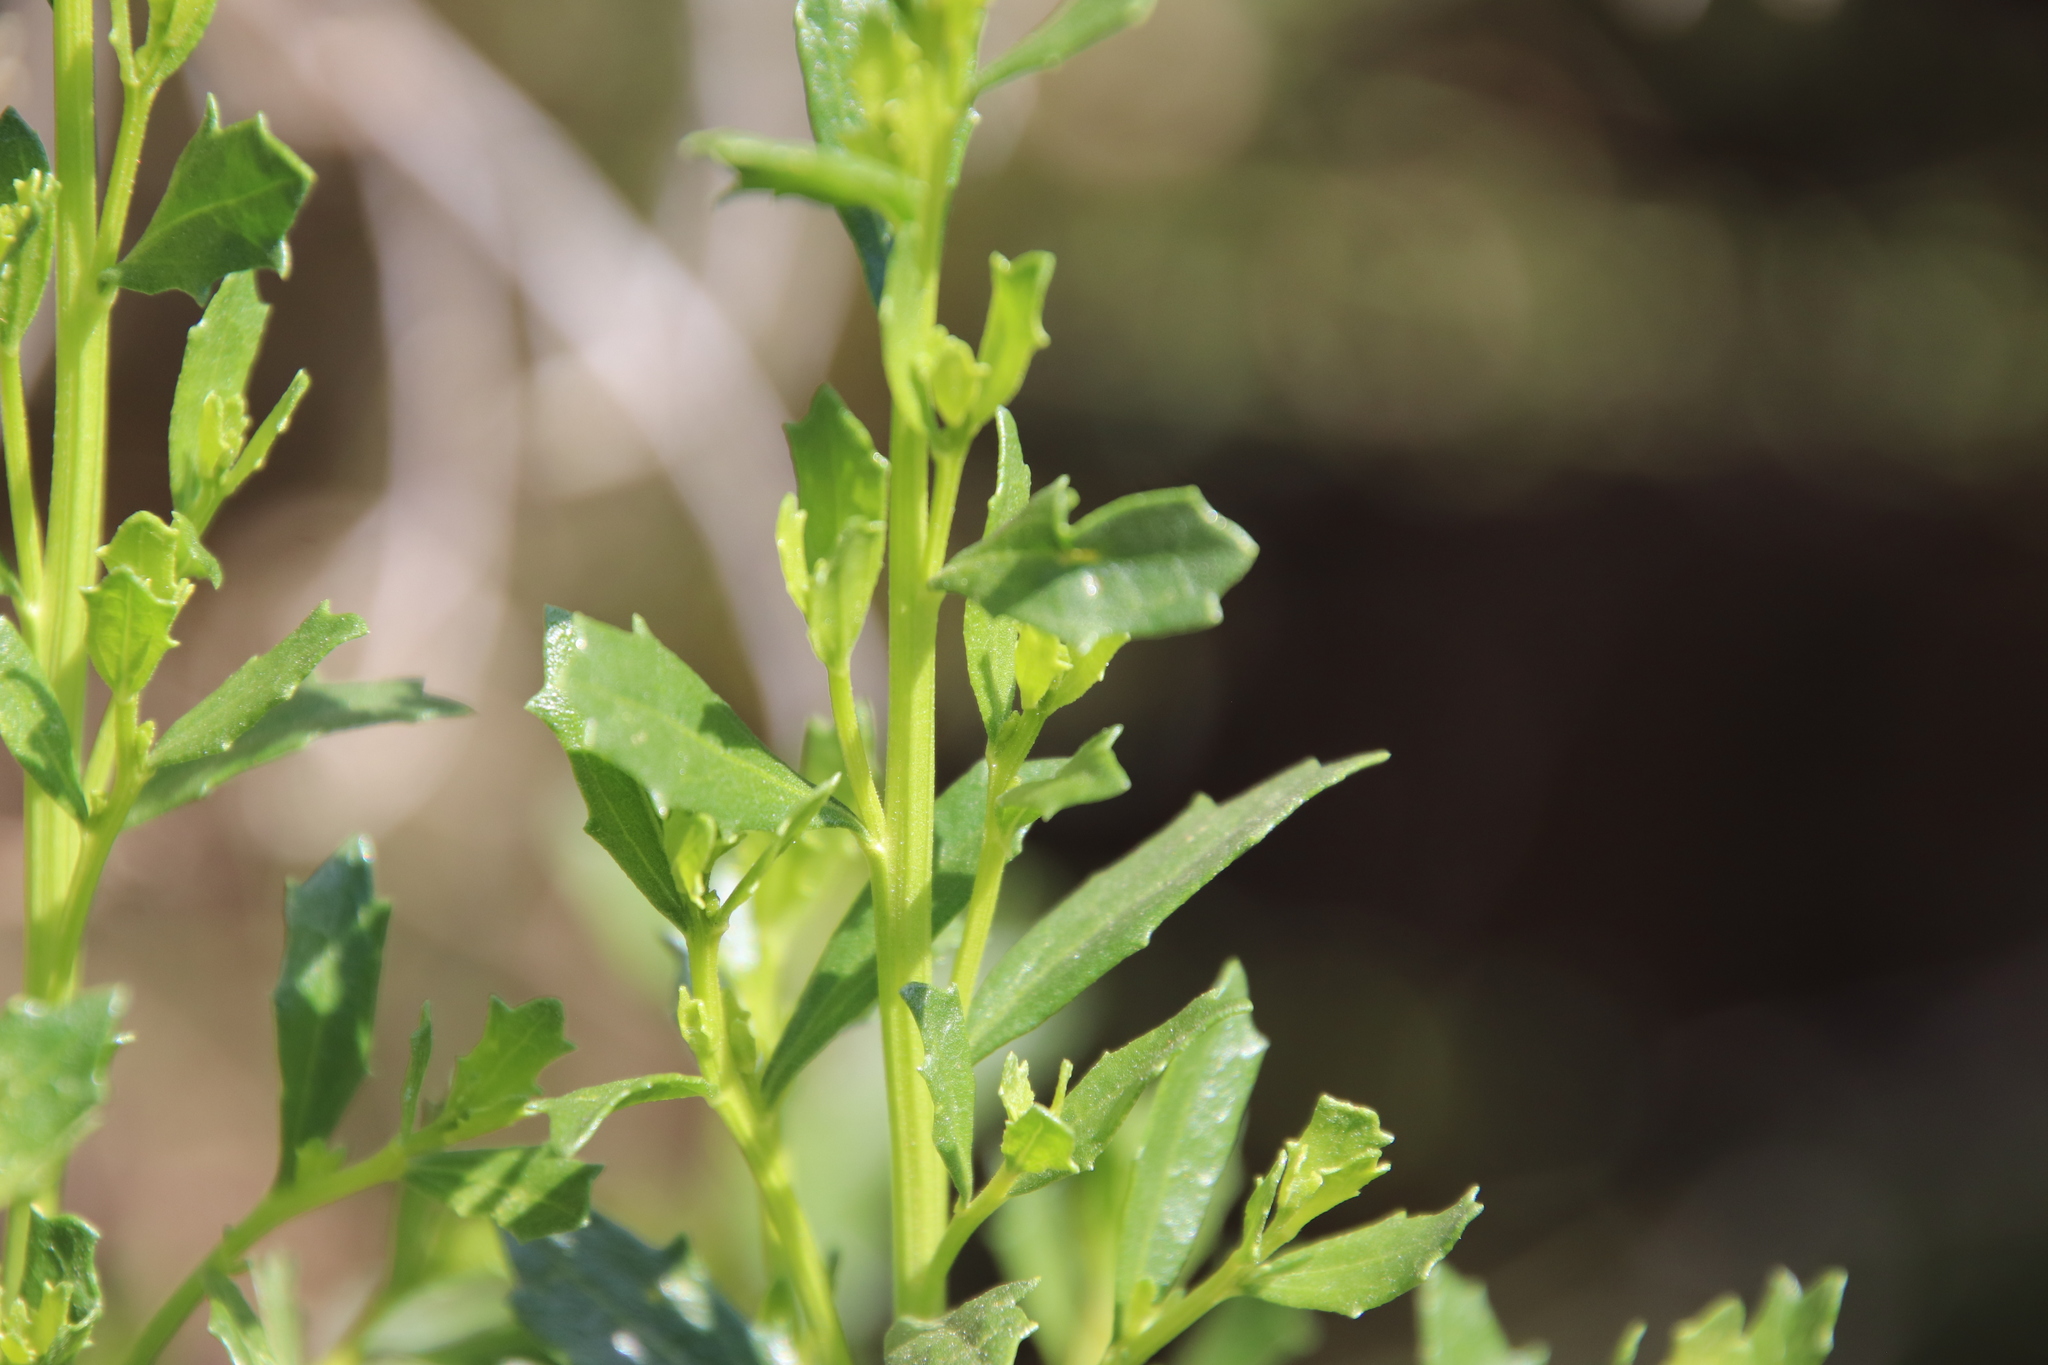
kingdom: Plantae
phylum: Tracheophyta
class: Magnoliopsida
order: Asterales
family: Asteraceae
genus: Baccharis
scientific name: Baccharis pilularis
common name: Coyotebrush
